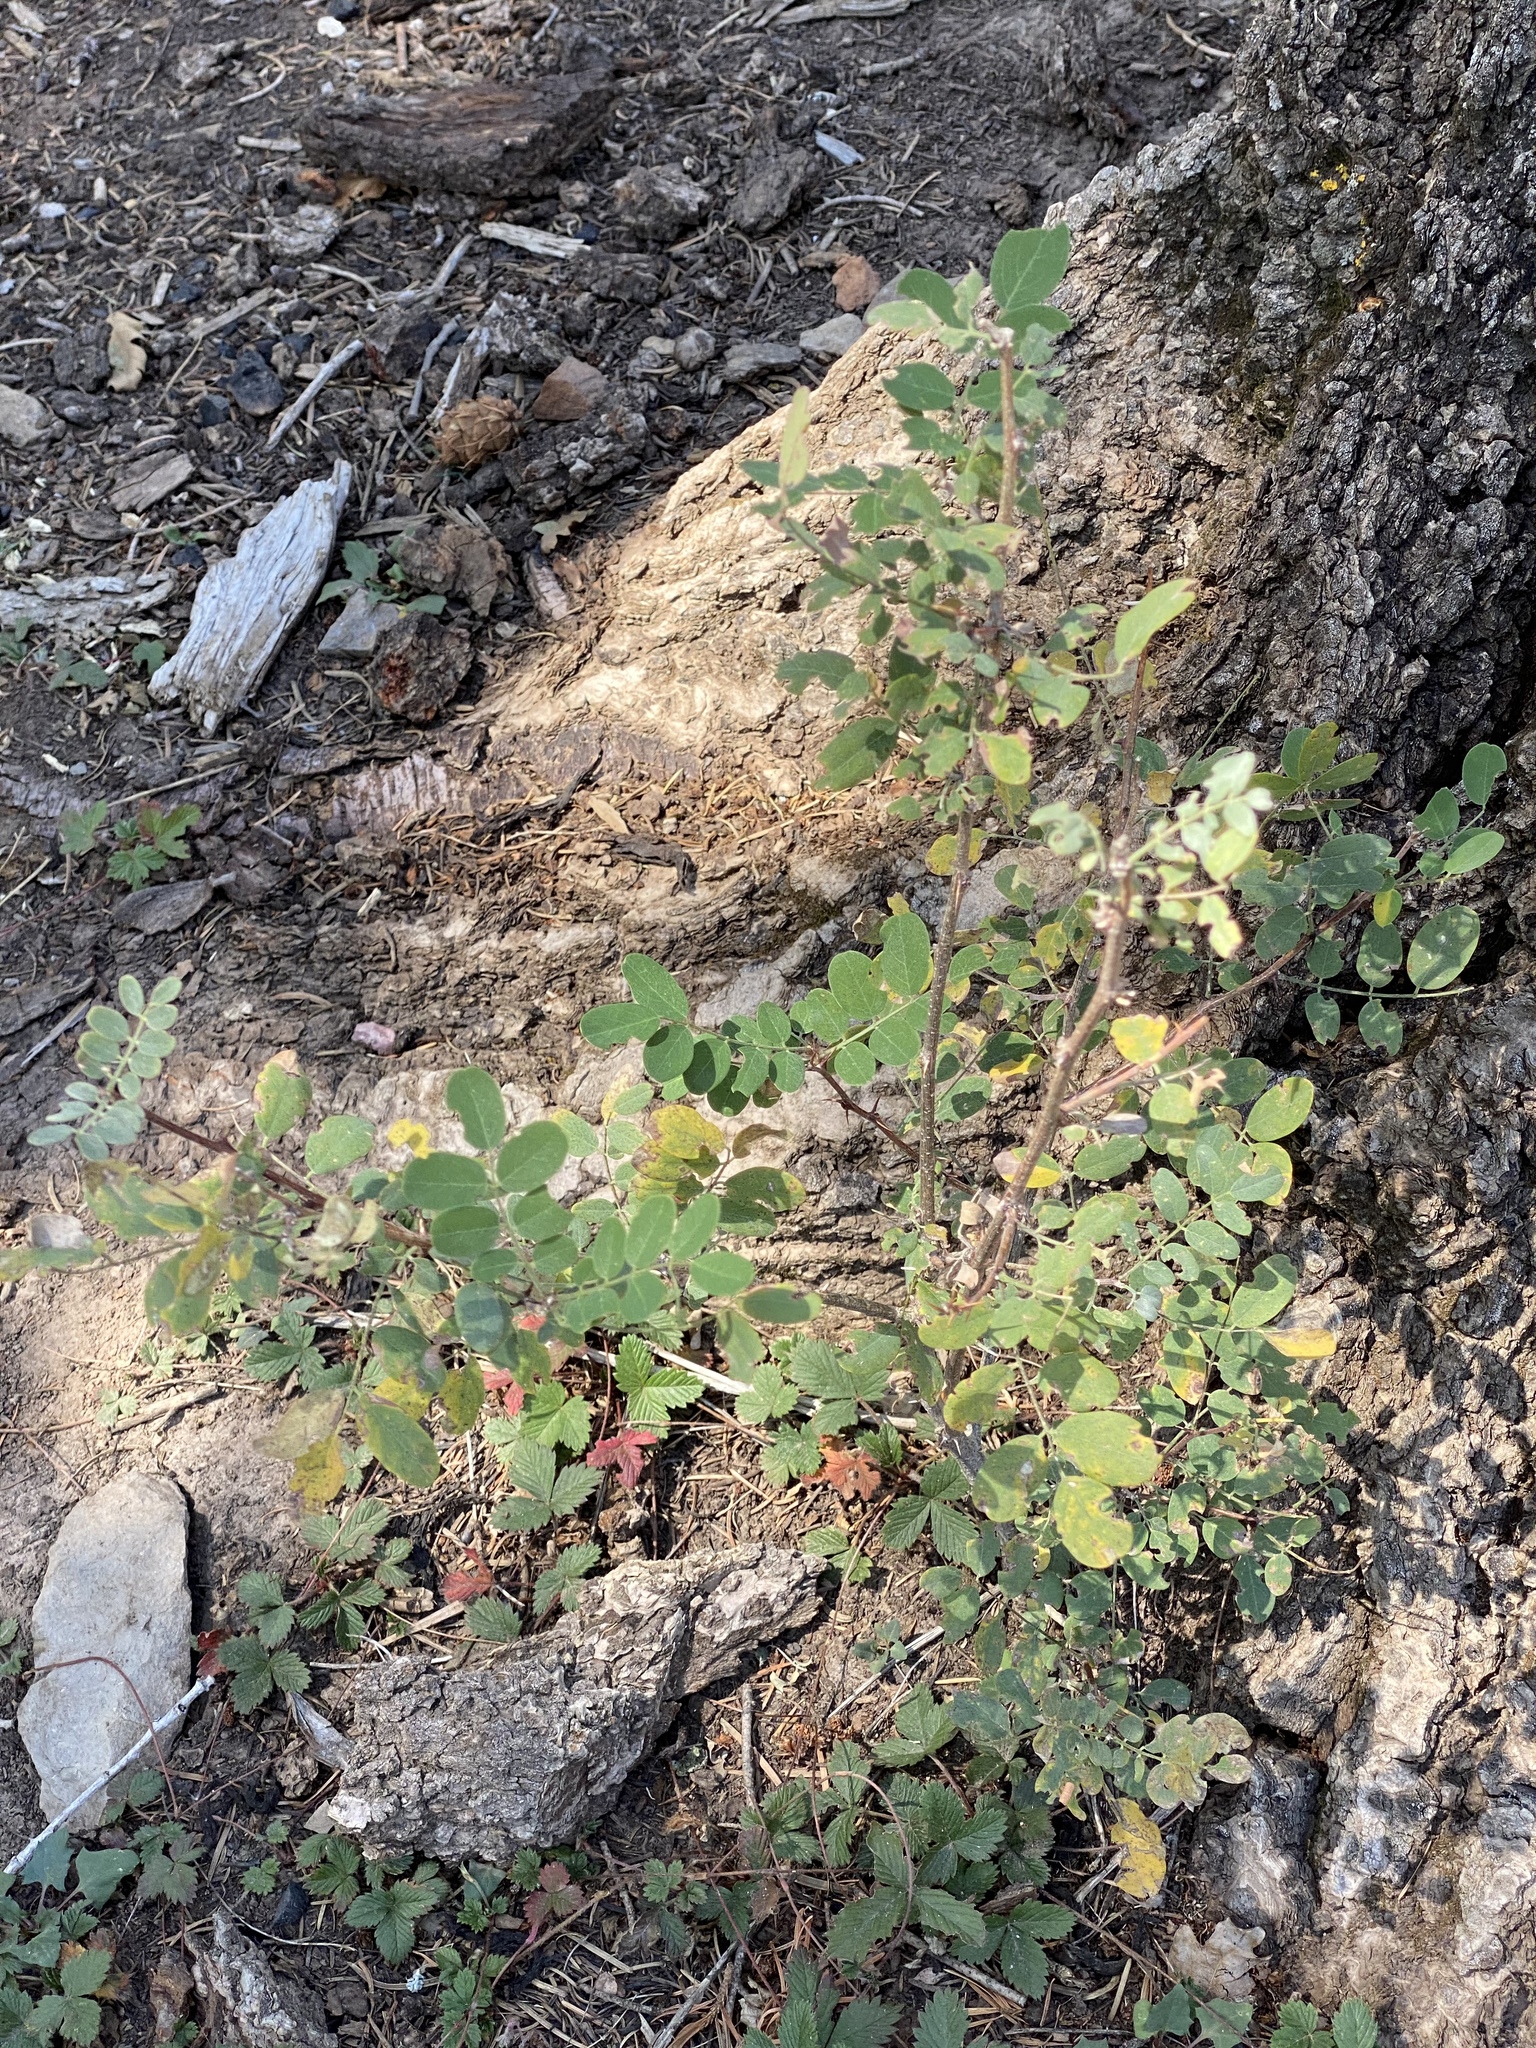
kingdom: Plantae
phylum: Tracheophyta
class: Magnoliopsida
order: Fabales
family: Fabaceae
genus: Robinia
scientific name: Robinia neomexicana
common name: New mexico locust
